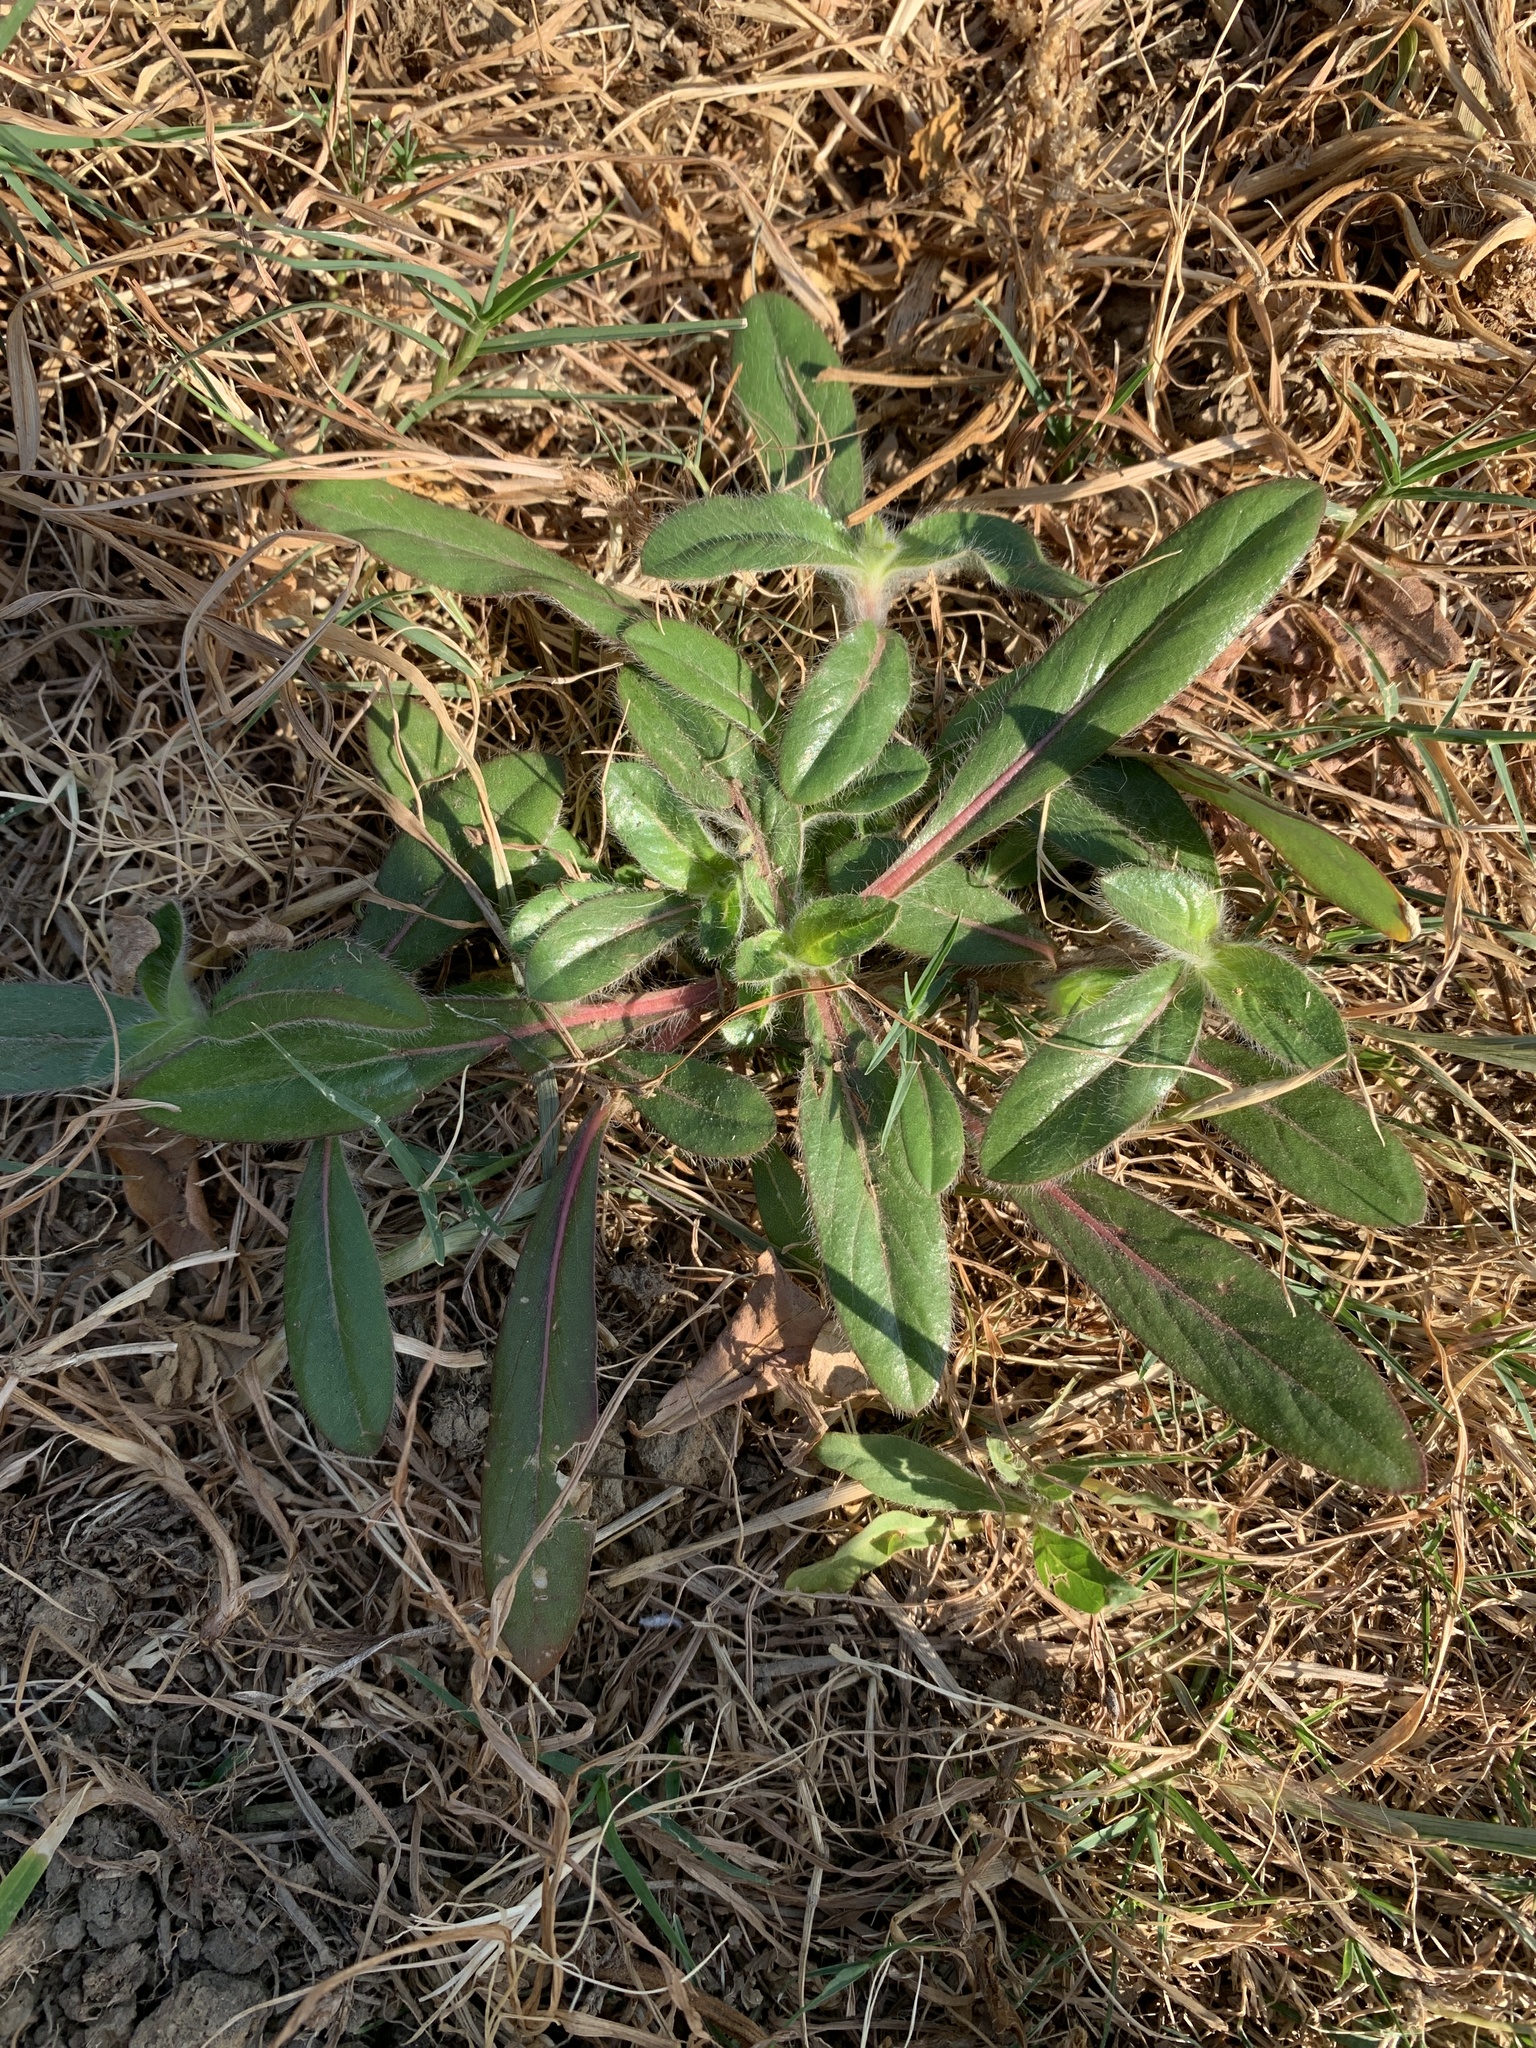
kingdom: Plantae
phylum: Tracheophyta
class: Magnoliopsida
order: Caryophyllales
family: Amaranthaceae
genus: Gomphrena
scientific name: Gomphrena celosioides
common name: Gomphrena-weed
